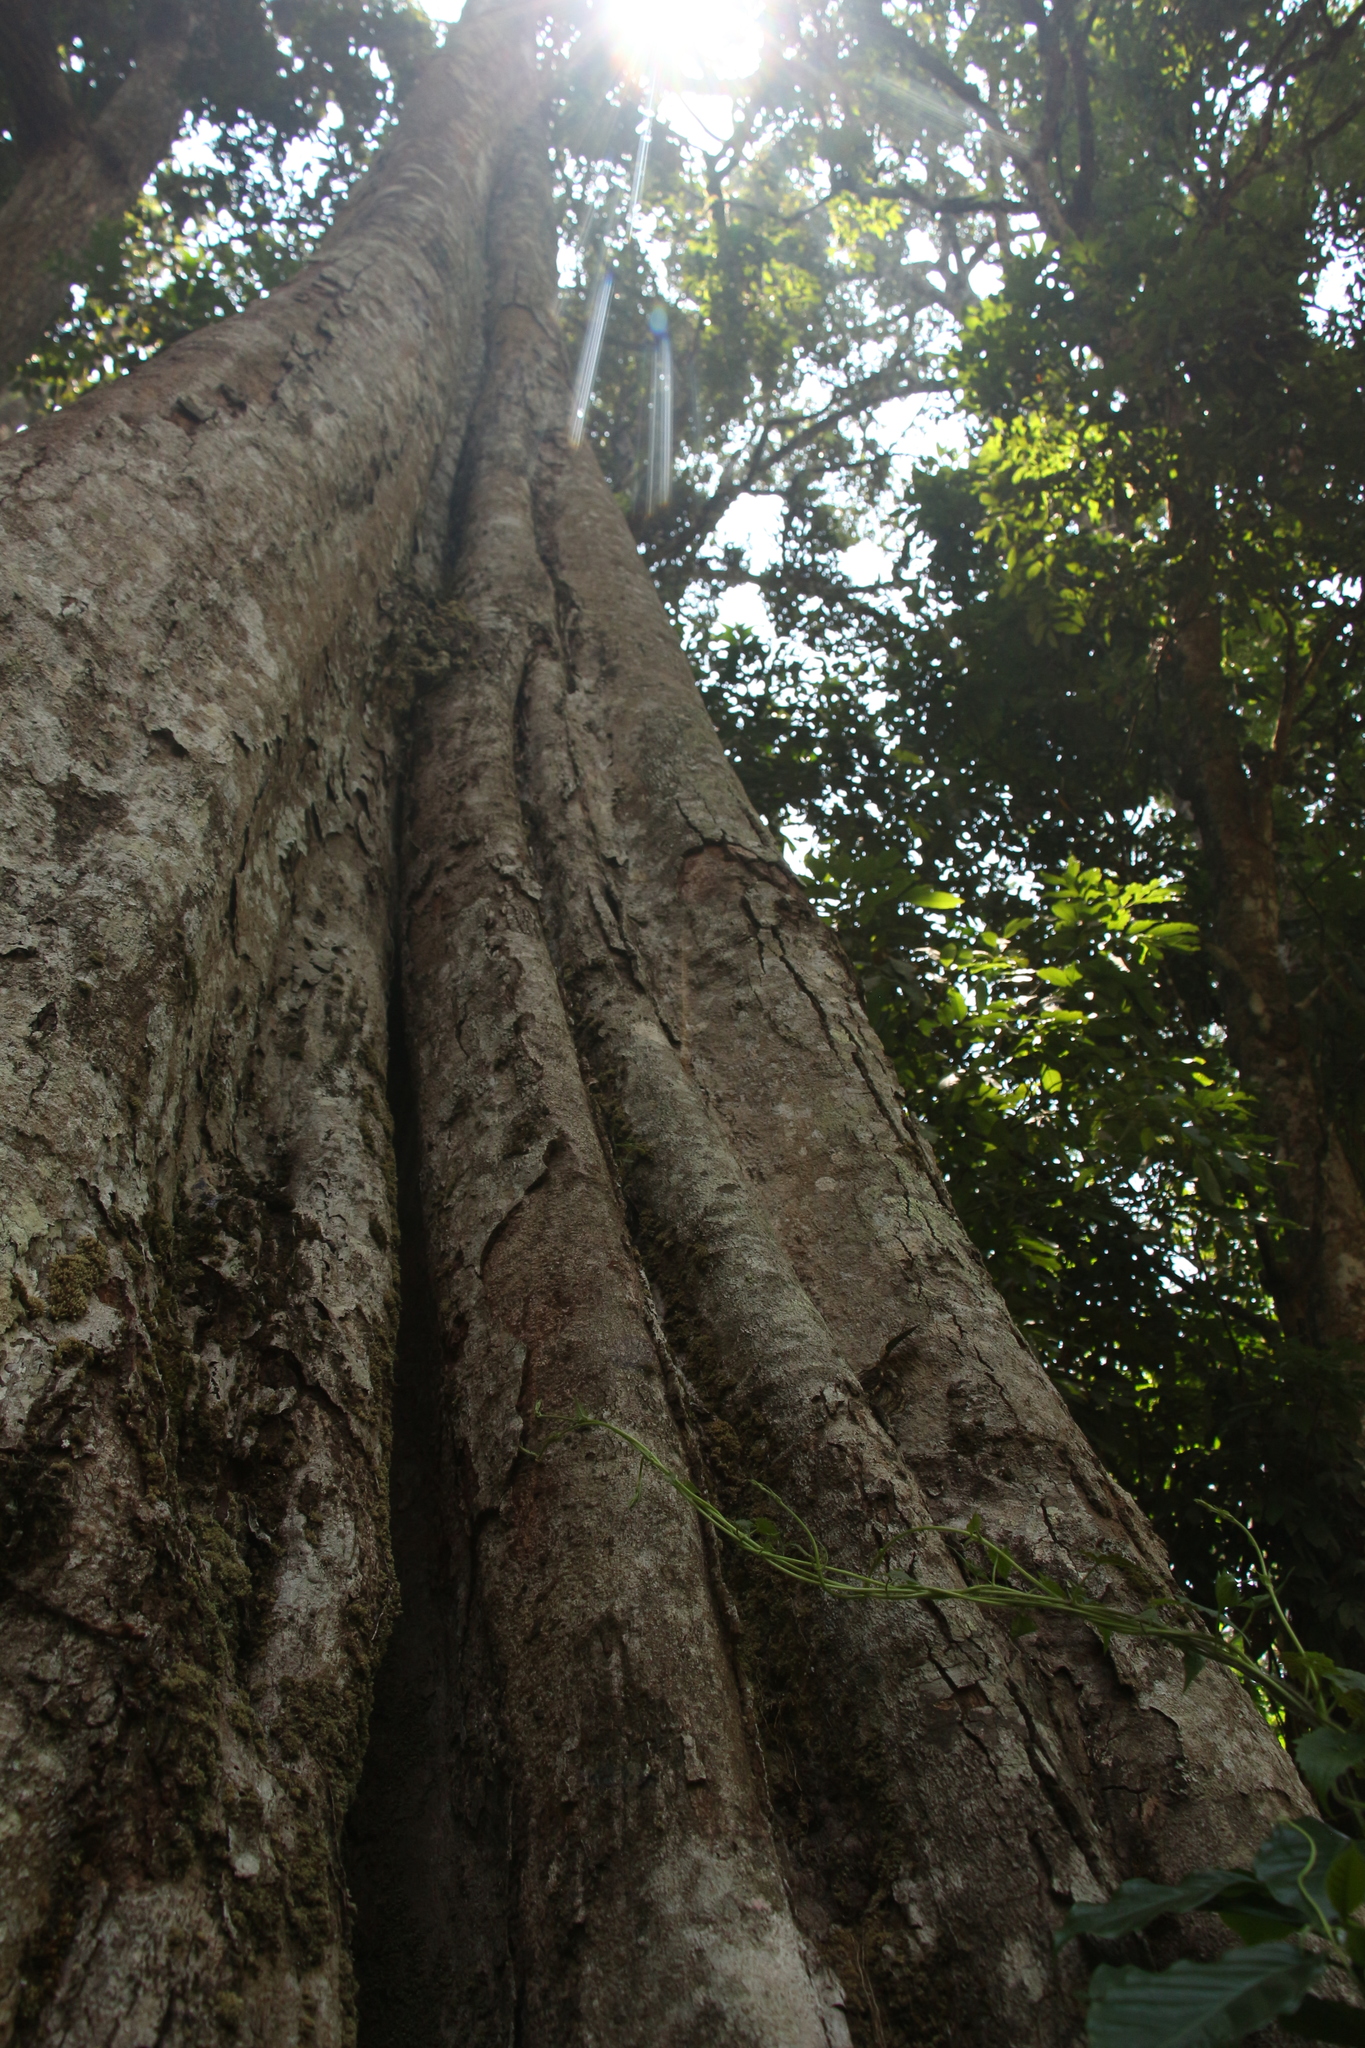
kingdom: Plantae
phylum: Tracheophyta
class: Magnoliopsida
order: Malvales
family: Malvaceae
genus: Cullenia
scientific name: Cullenia exarillata
